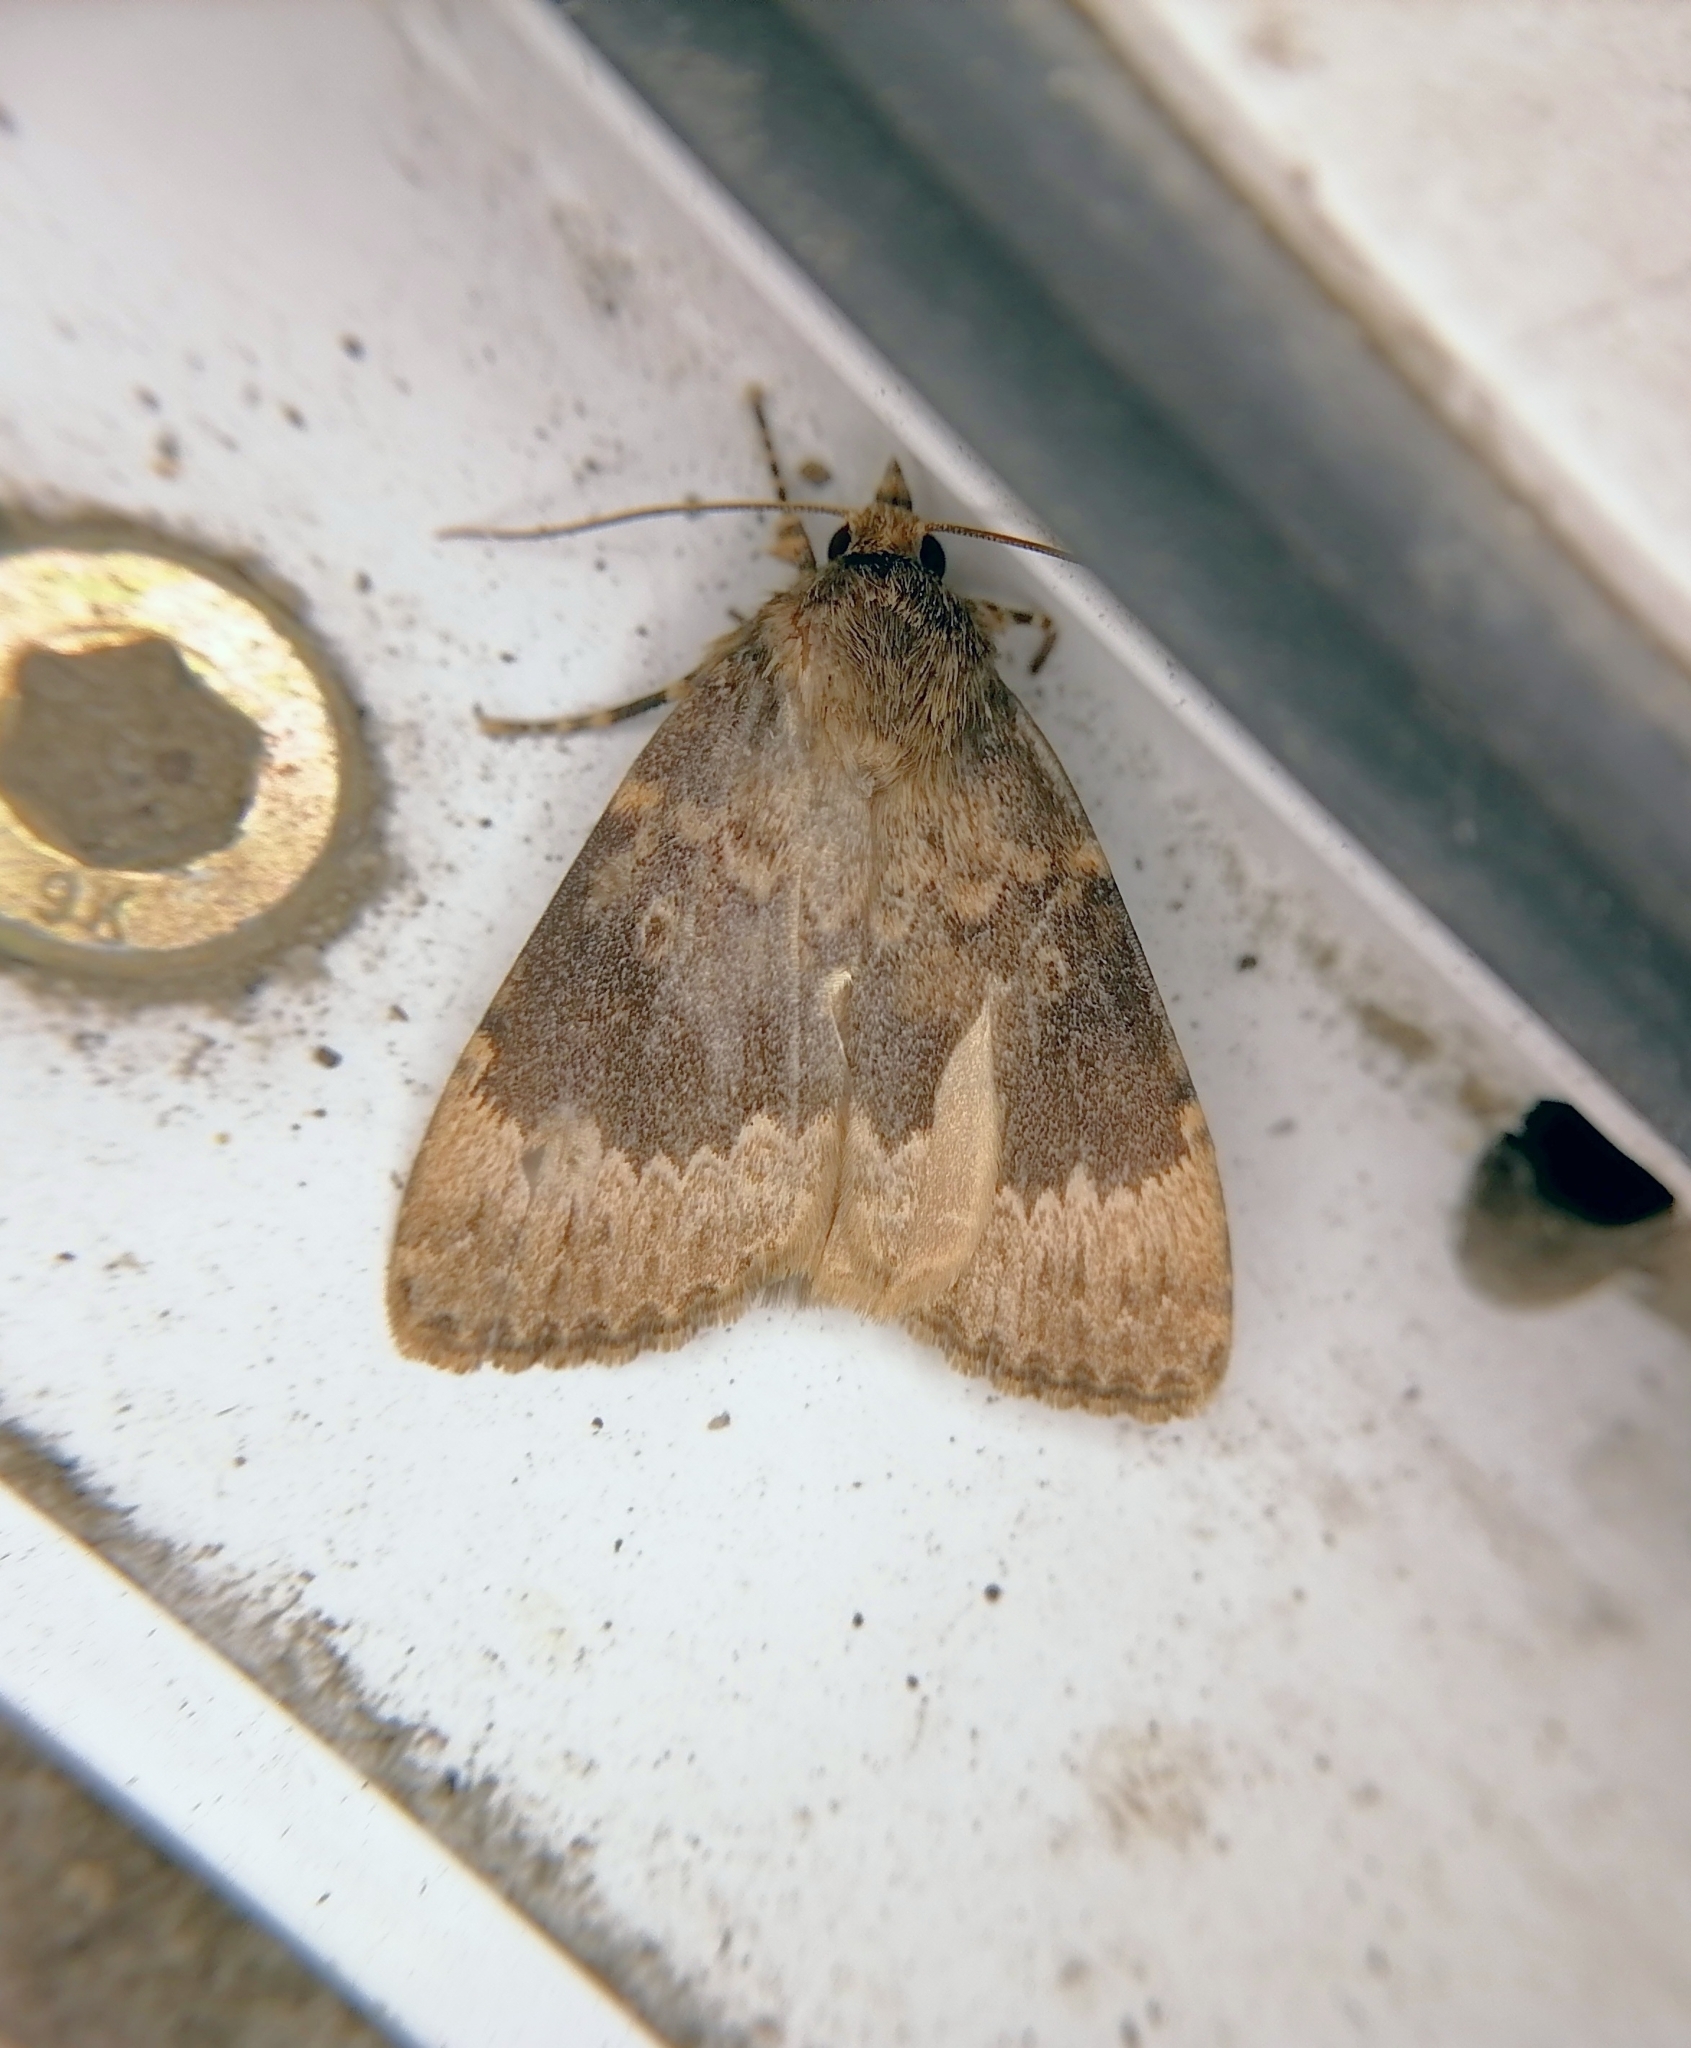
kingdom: Animalia
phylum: Arthropoda
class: Insecta
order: Lepidoptera
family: Noctuidae
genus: Amphipyra
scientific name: Amphipyra perflua
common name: Larger pale-tipped black moth
